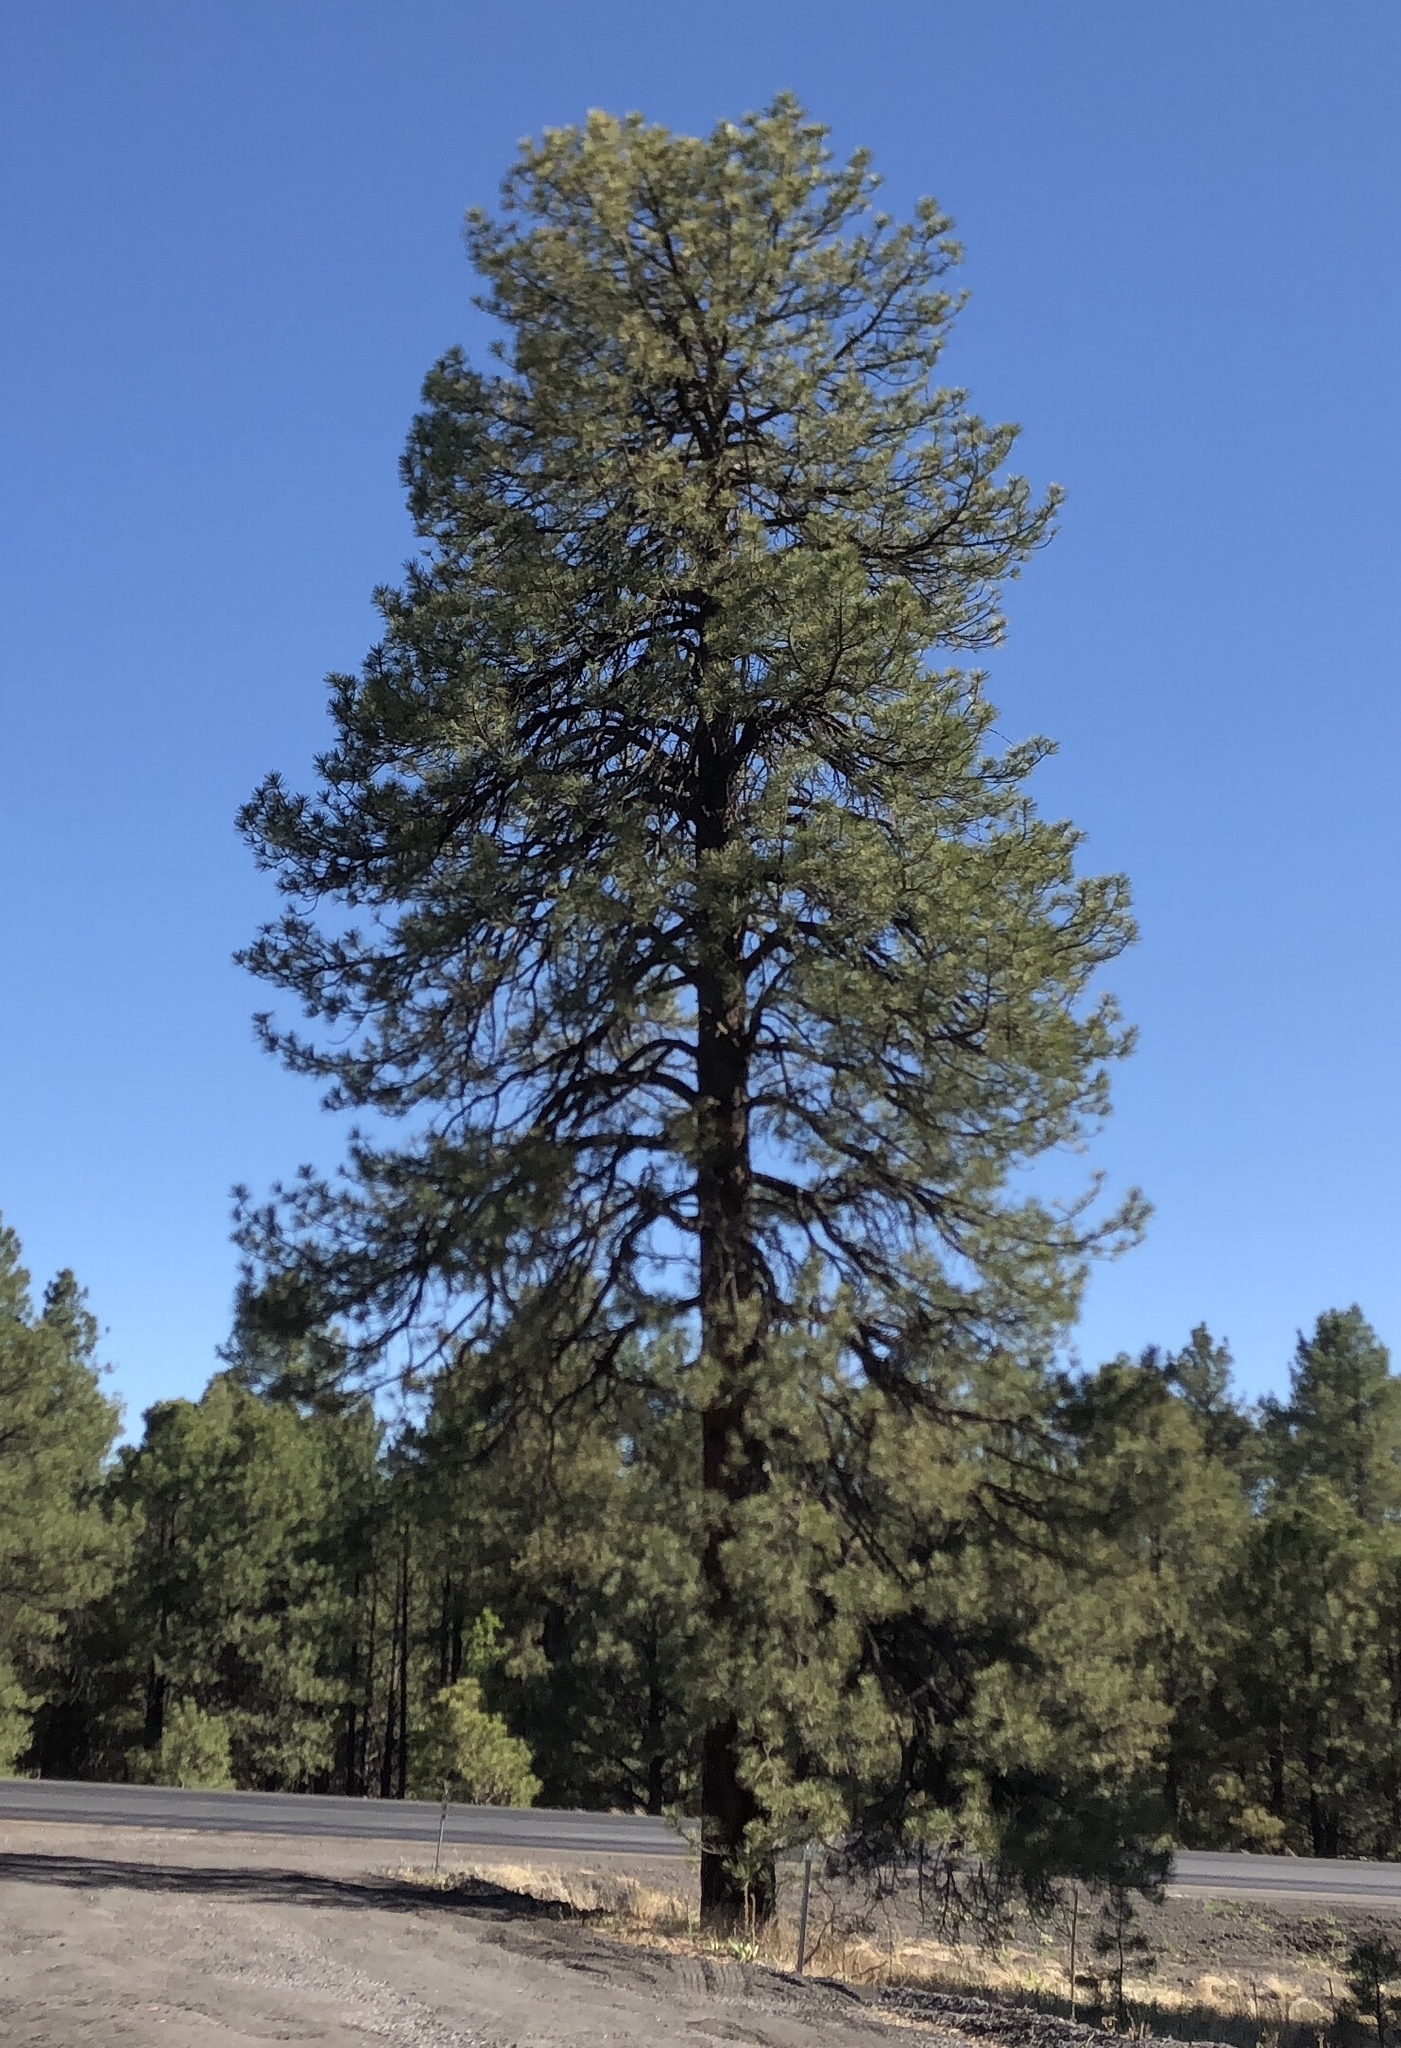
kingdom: Plantae
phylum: Tracheophyta
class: Pinopsida
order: Pinales
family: Pinaceae
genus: Pinus
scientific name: Pinus ponderosa
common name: Western yellow-pine
